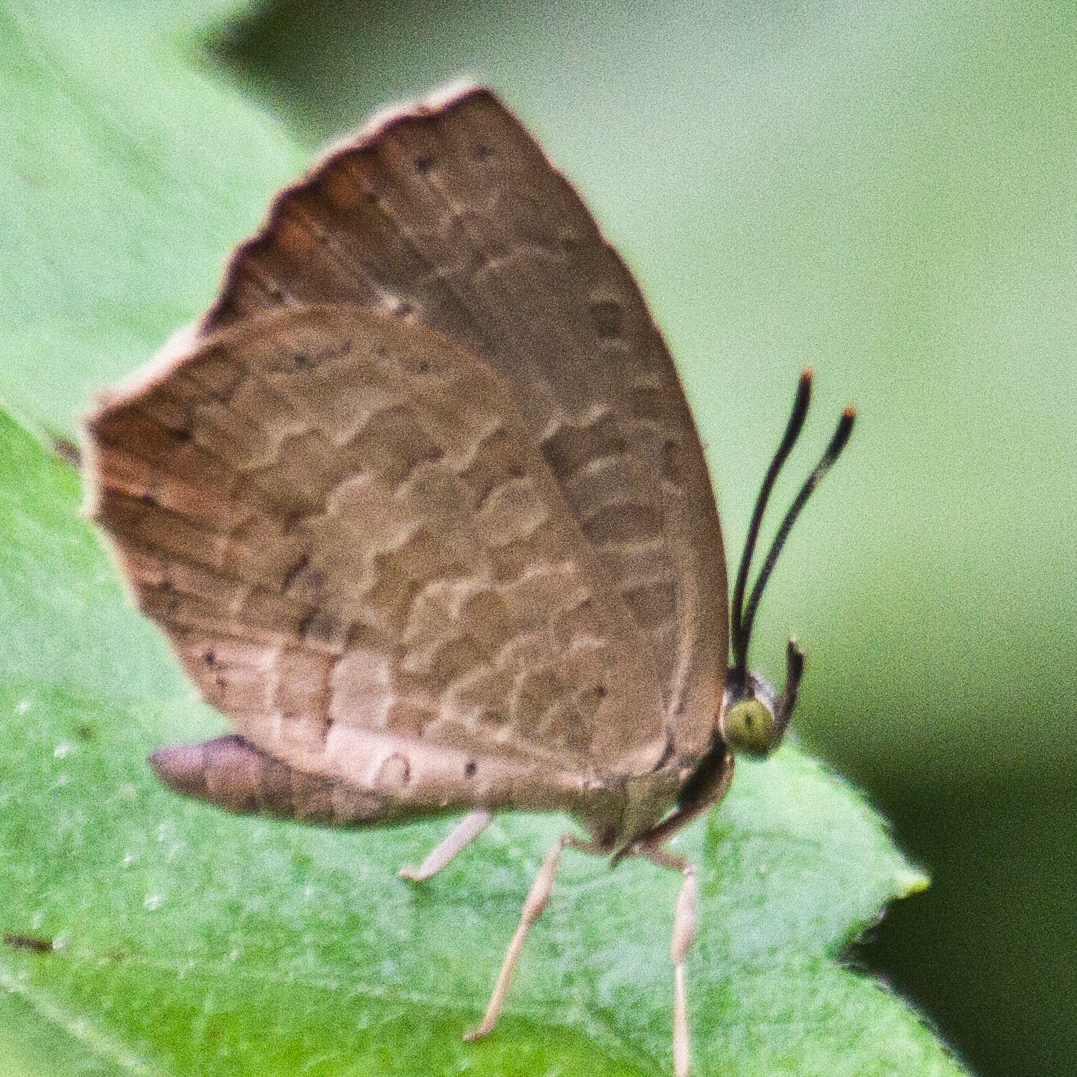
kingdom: Animalia
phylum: Arthropoda
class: Insecta
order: Lepidoptera
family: Lycaenidae
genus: Miletus
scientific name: Miletus chinensis
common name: Common brownie
